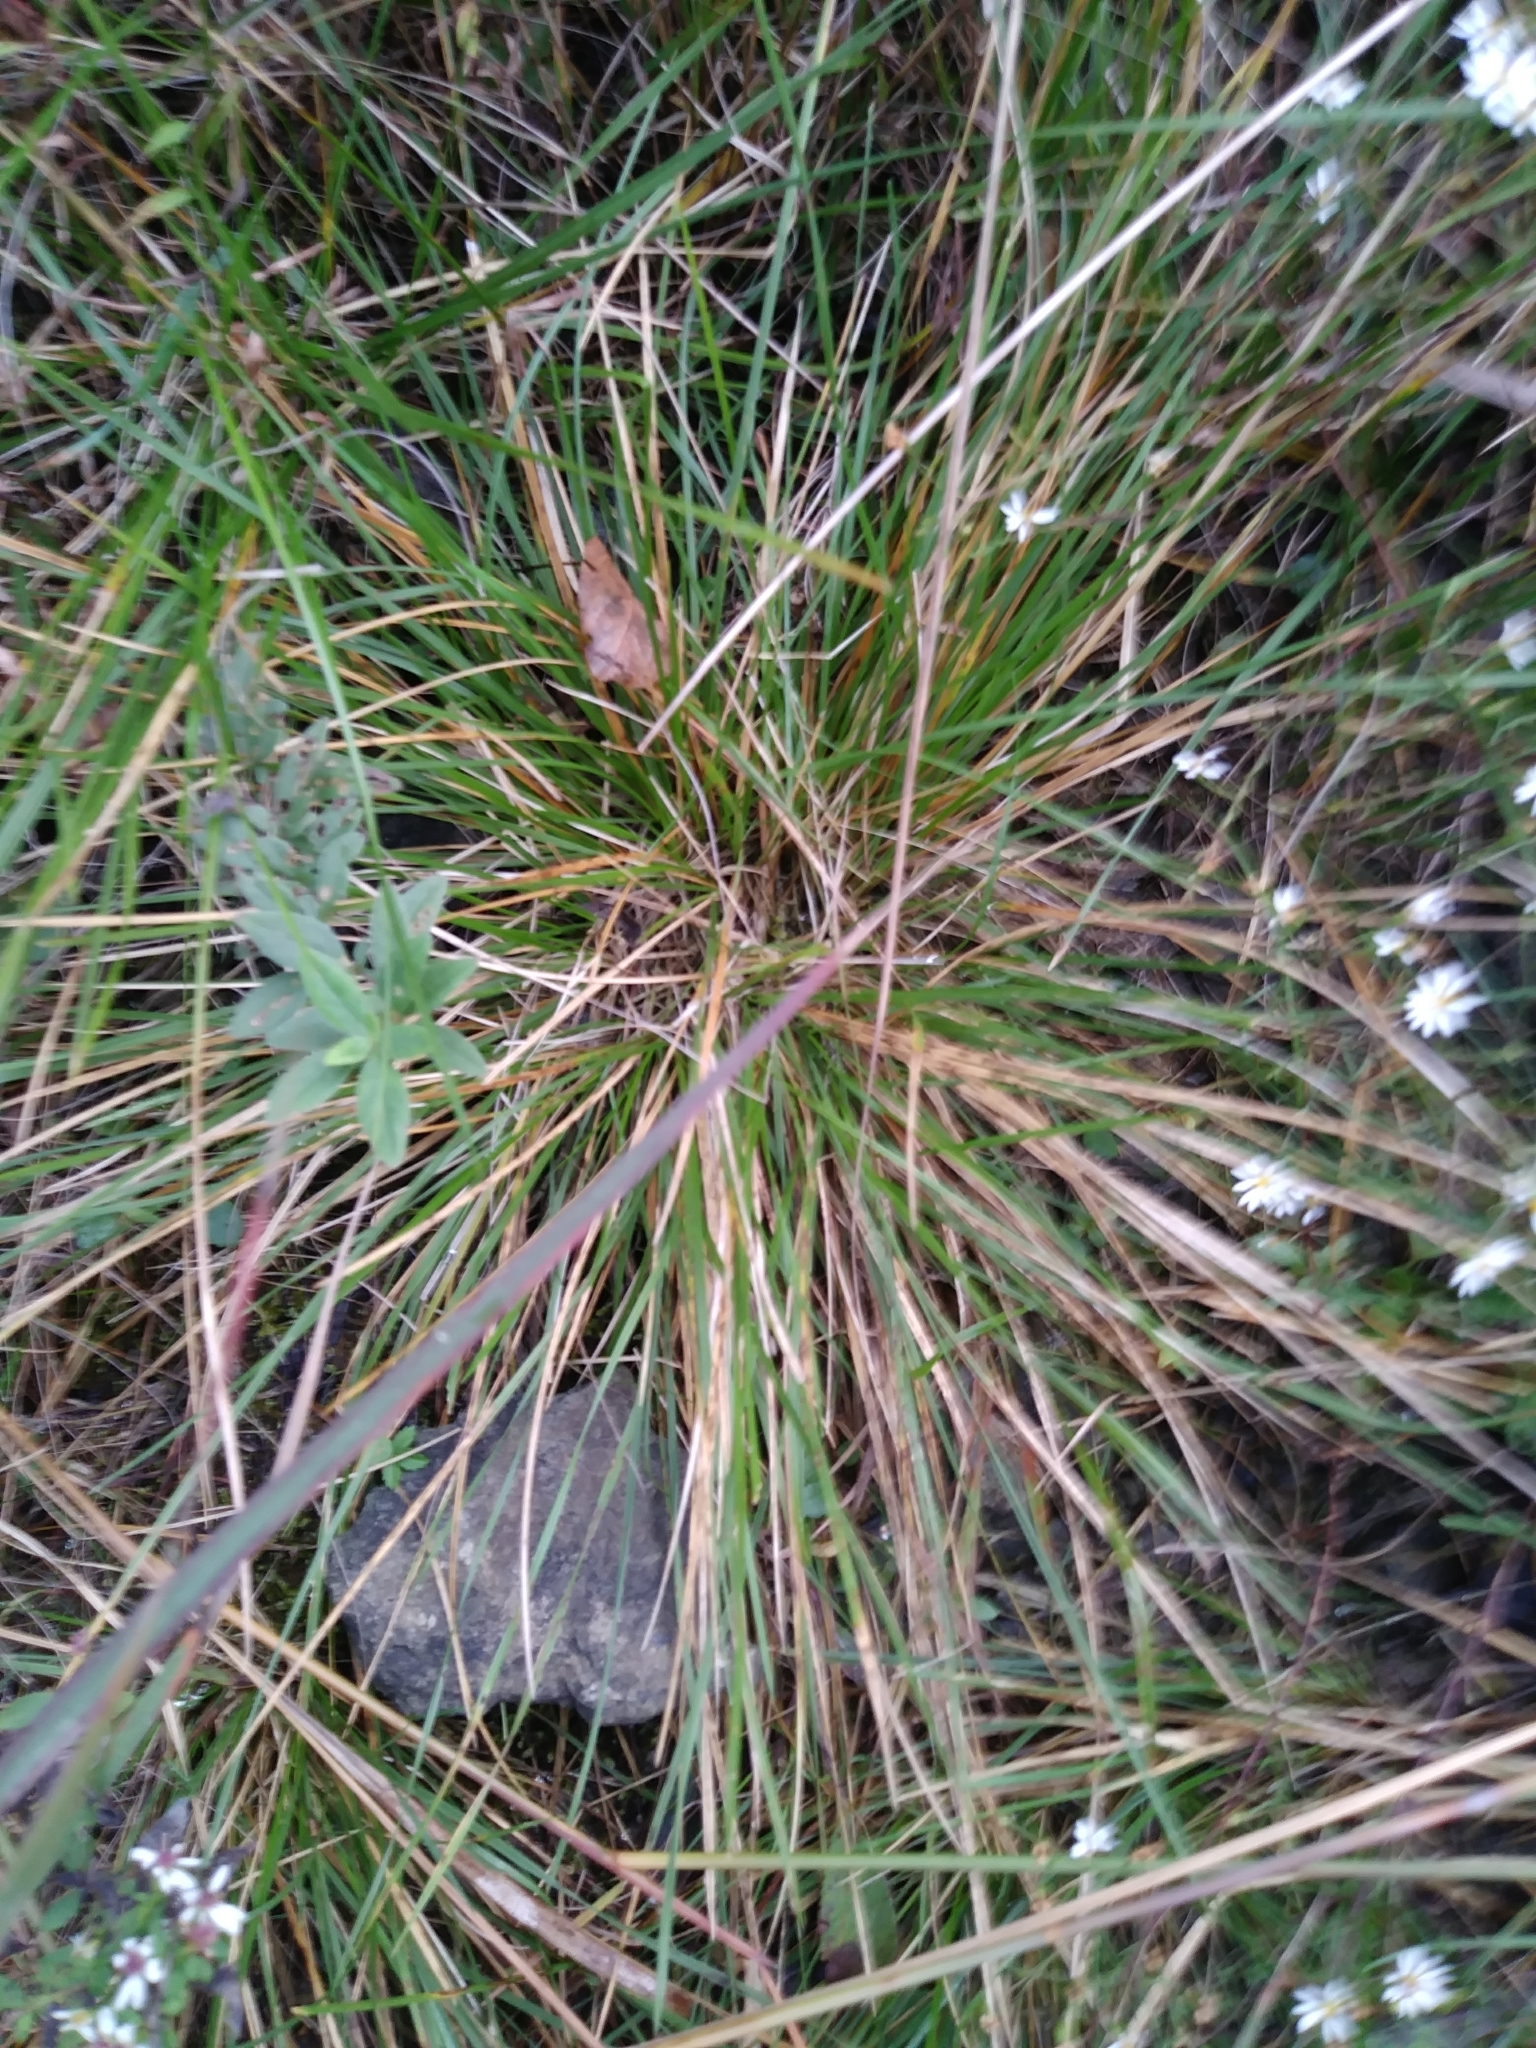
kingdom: Plantae
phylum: Tracheophyta
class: Liliopsida
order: Poales
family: Poaceae
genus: Deschampsia
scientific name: Deschampsia cespitosa
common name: Tufted hair-grass
